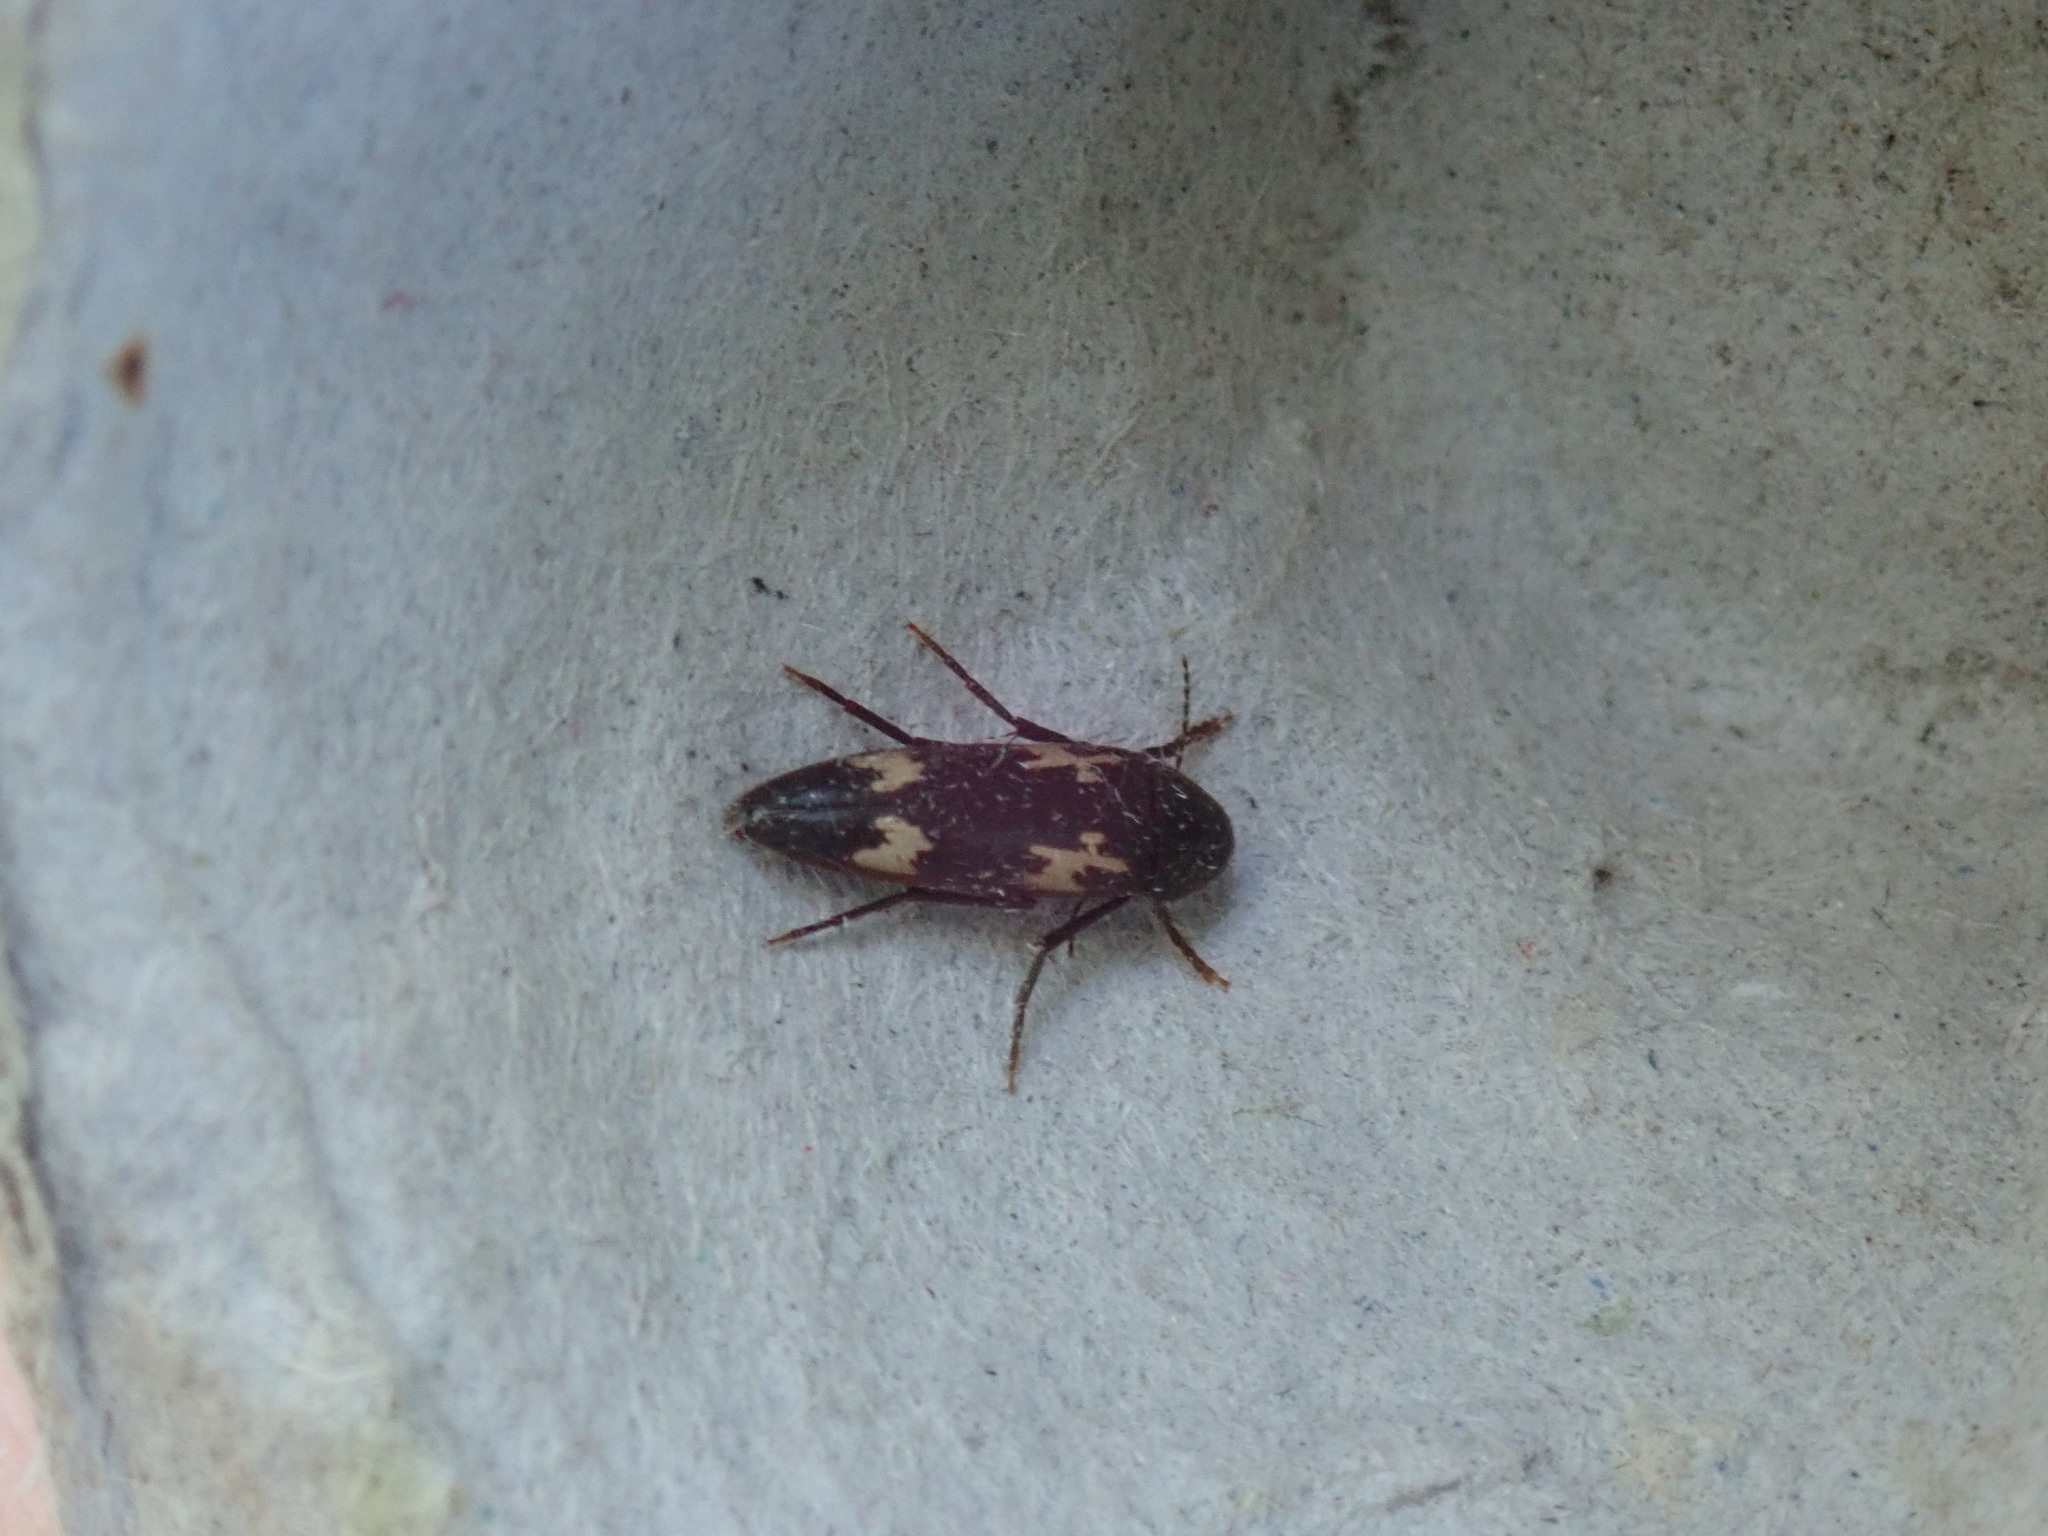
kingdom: Animalia
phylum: Arthropoda
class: Insecta
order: Coleoptera
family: Melandryidae
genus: Dircaea
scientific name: Dircaea liturata
